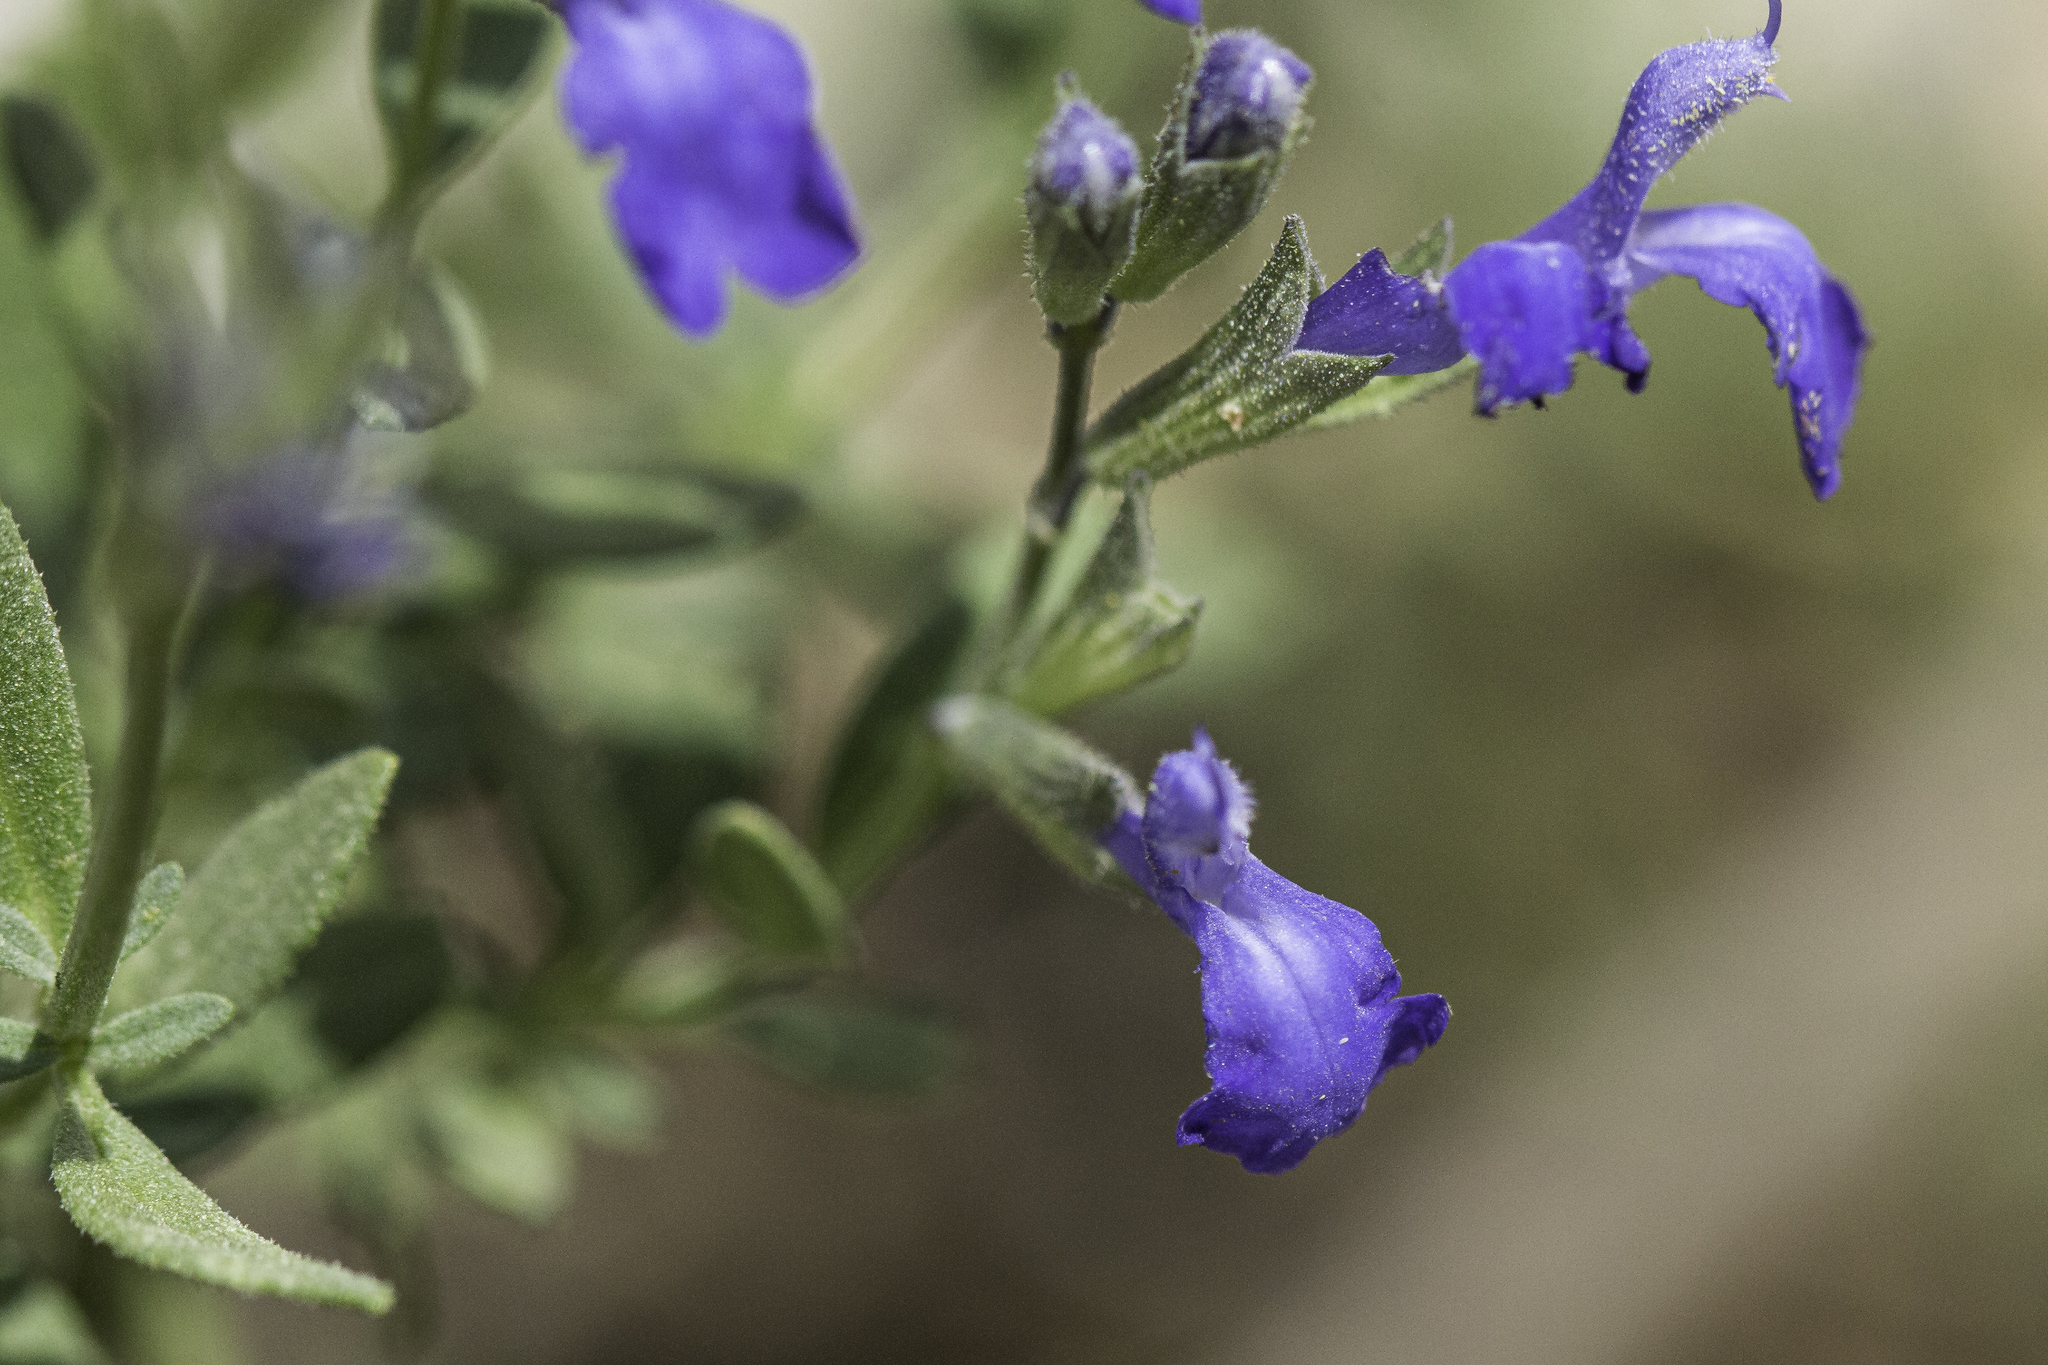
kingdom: Plantae
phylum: Tracheophyta
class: Magnoliopsida
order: Lamiales
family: Lamiaceae
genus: Salvia
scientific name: Salvia lycioides
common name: Canyon sage
